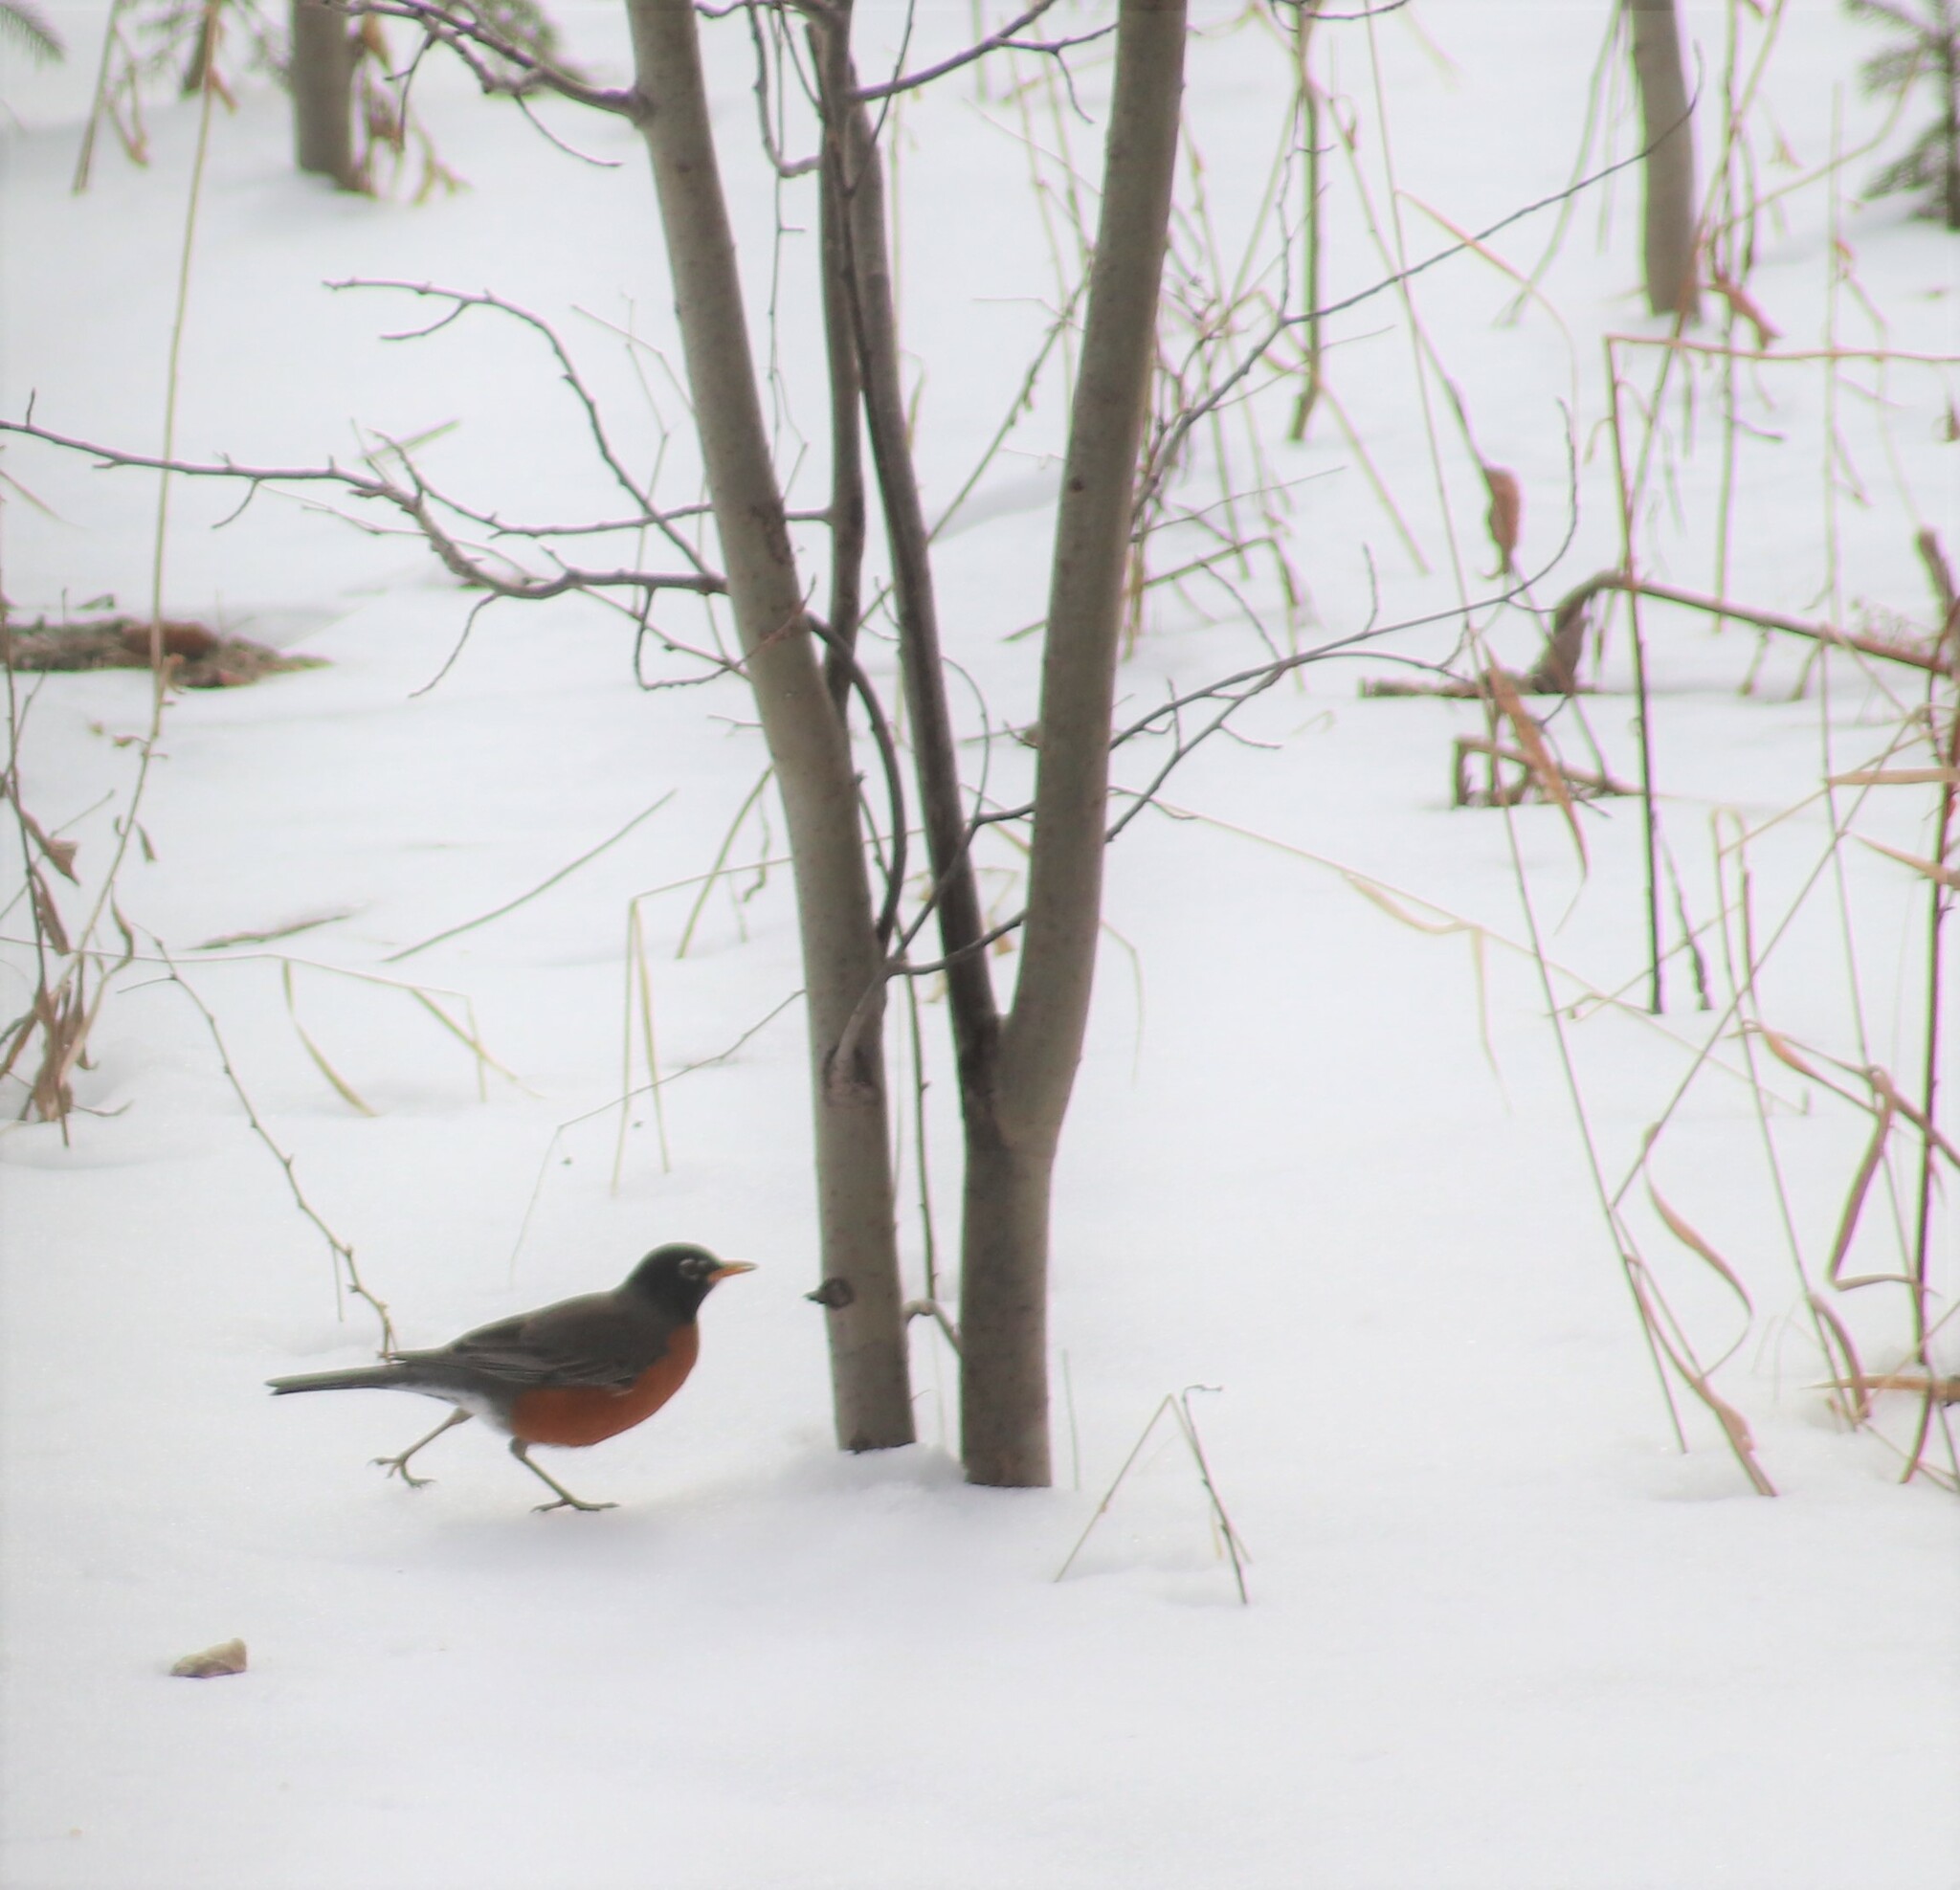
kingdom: Animalia
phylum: Chordata
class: Aves
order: Passeriformes
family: Turdidae
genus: Turdus
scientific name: Turdus migratorius
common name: American robin
